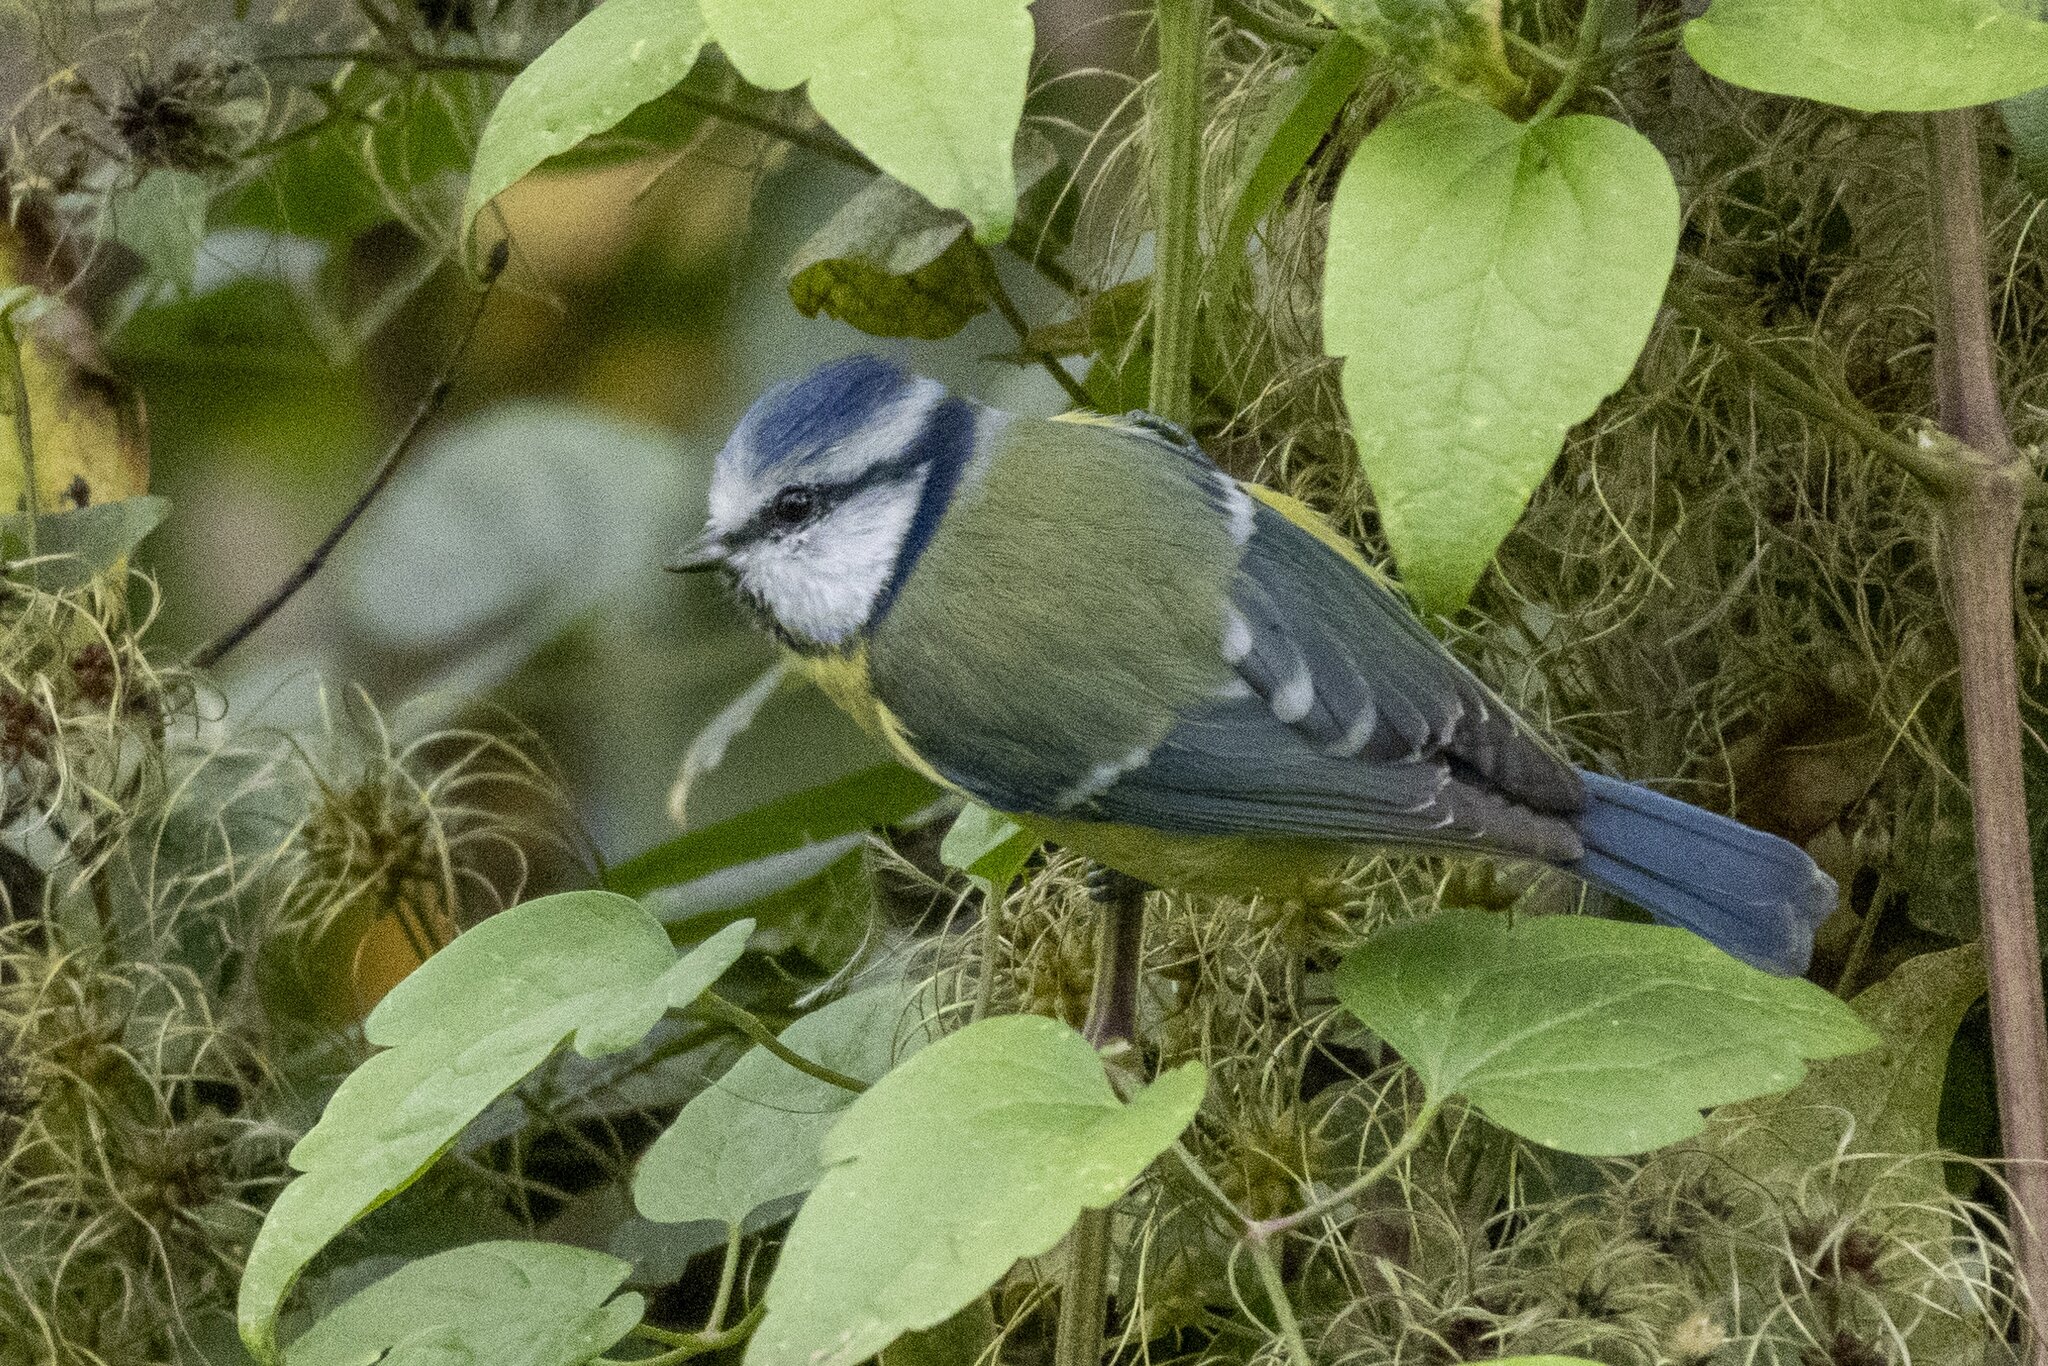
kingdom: Animalia
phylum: Chordata
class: Aves
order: Passeriformes
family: Paridae
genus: Cyanistes
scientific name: Cyanistes caeruleus
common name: Eurasian blue tit
